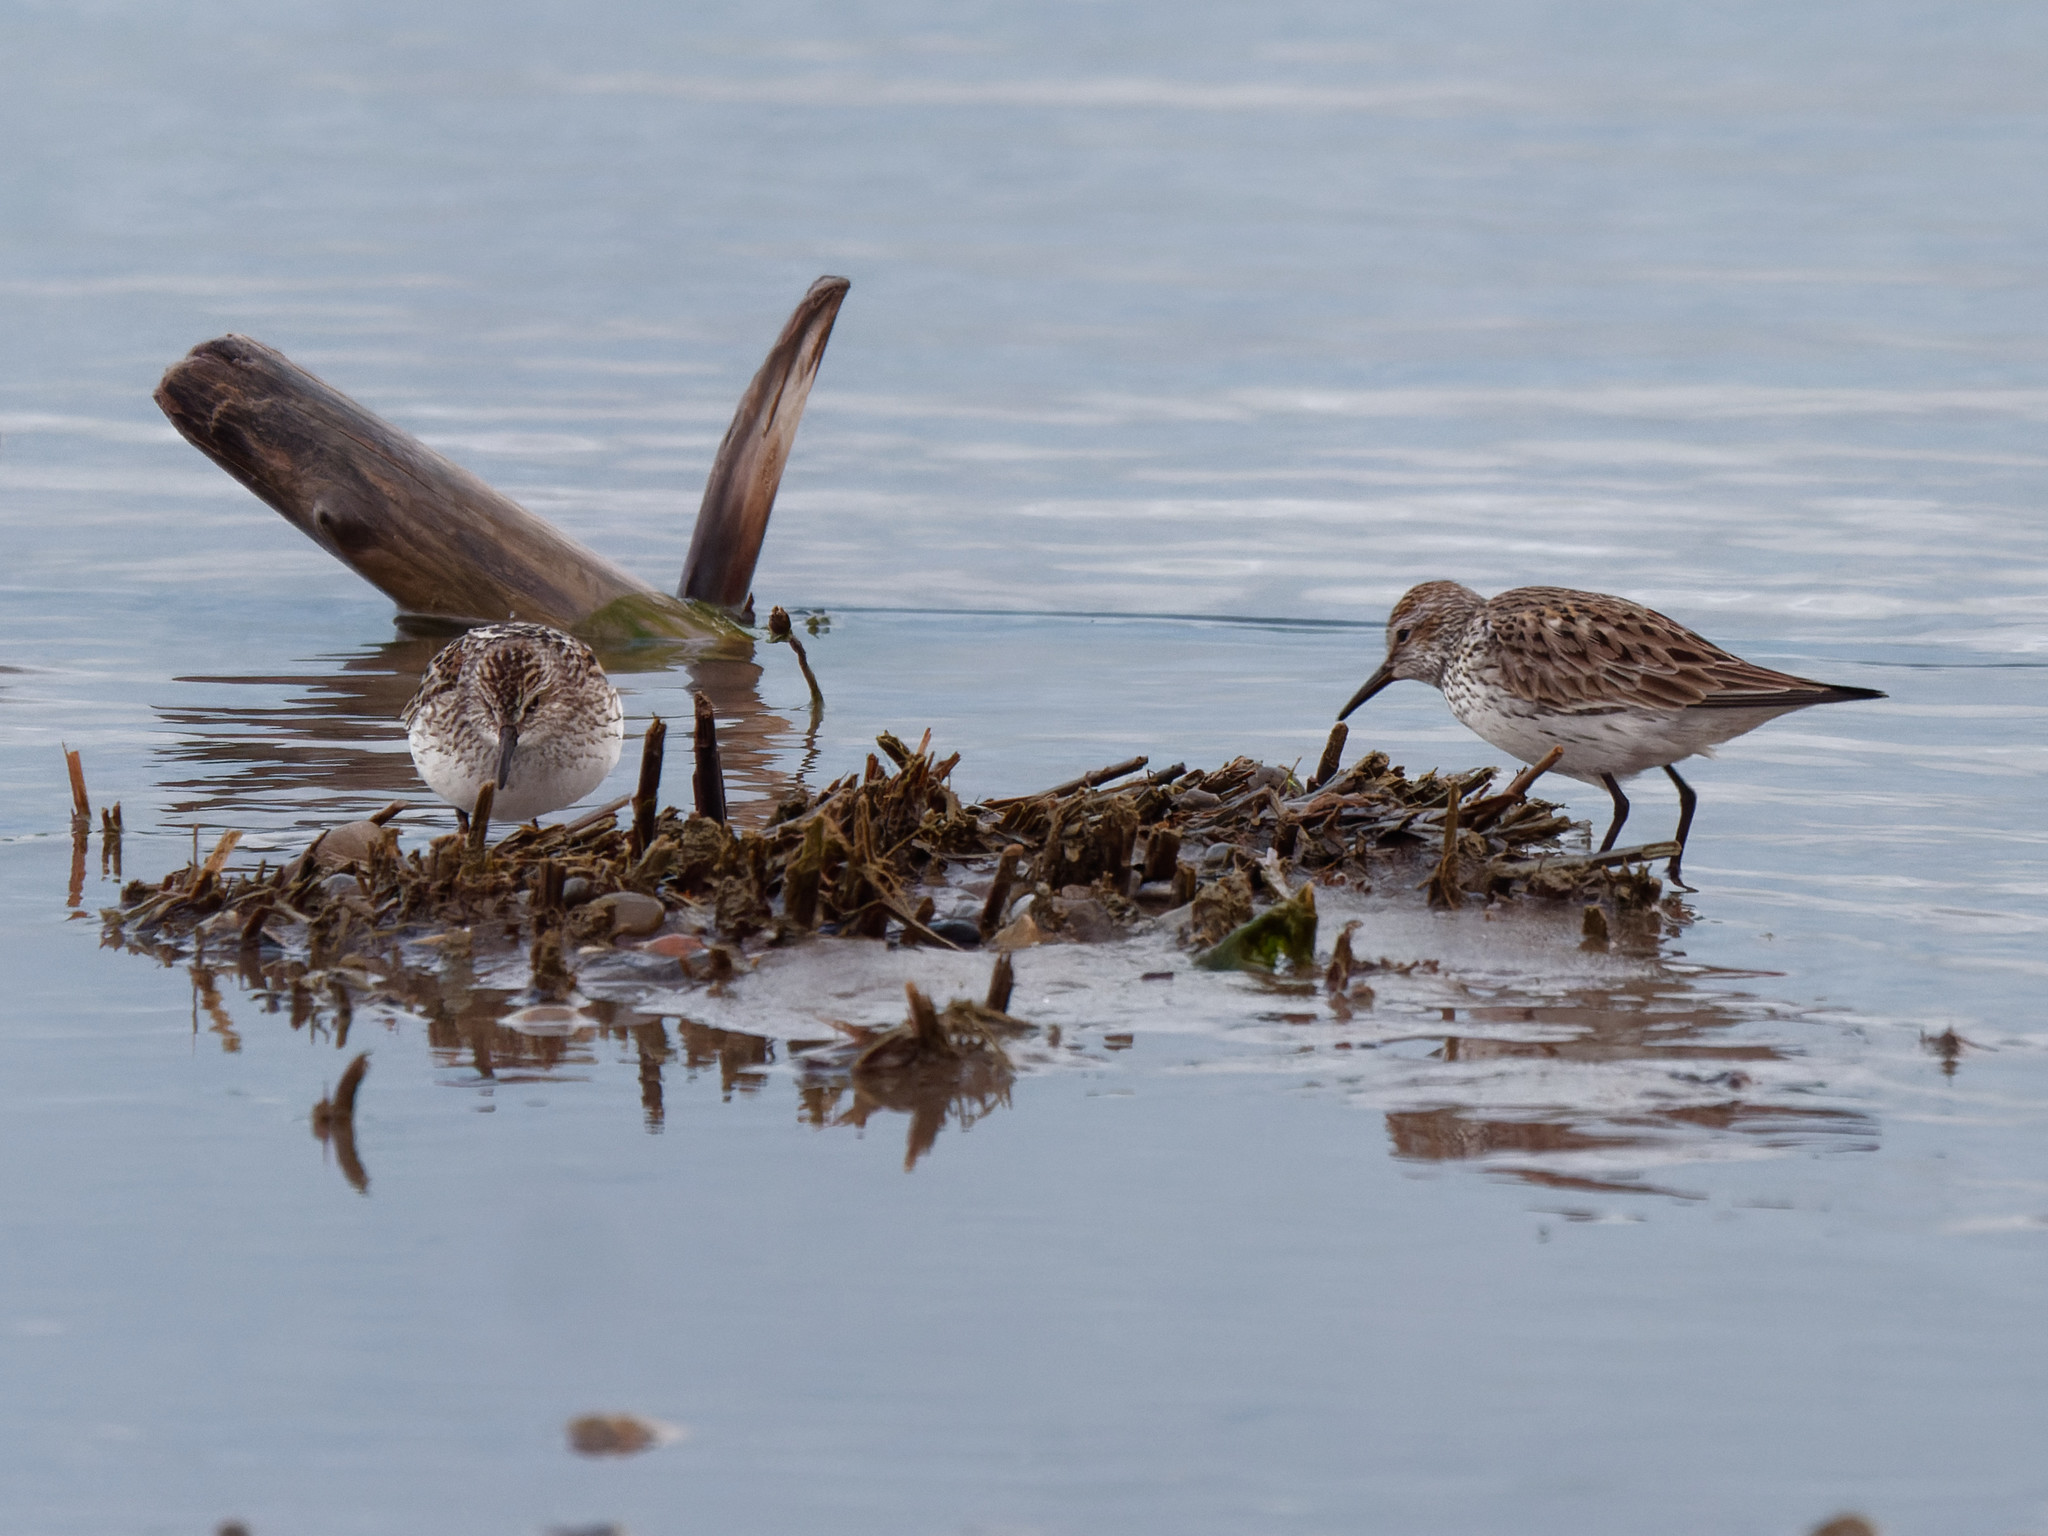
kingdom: Animalia
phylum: Chordata
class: Aves
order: Charadriiformes
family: Scolopacidae
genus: Calidris
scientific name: Calidris fuscicollis
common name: White-rumped sandpiper
